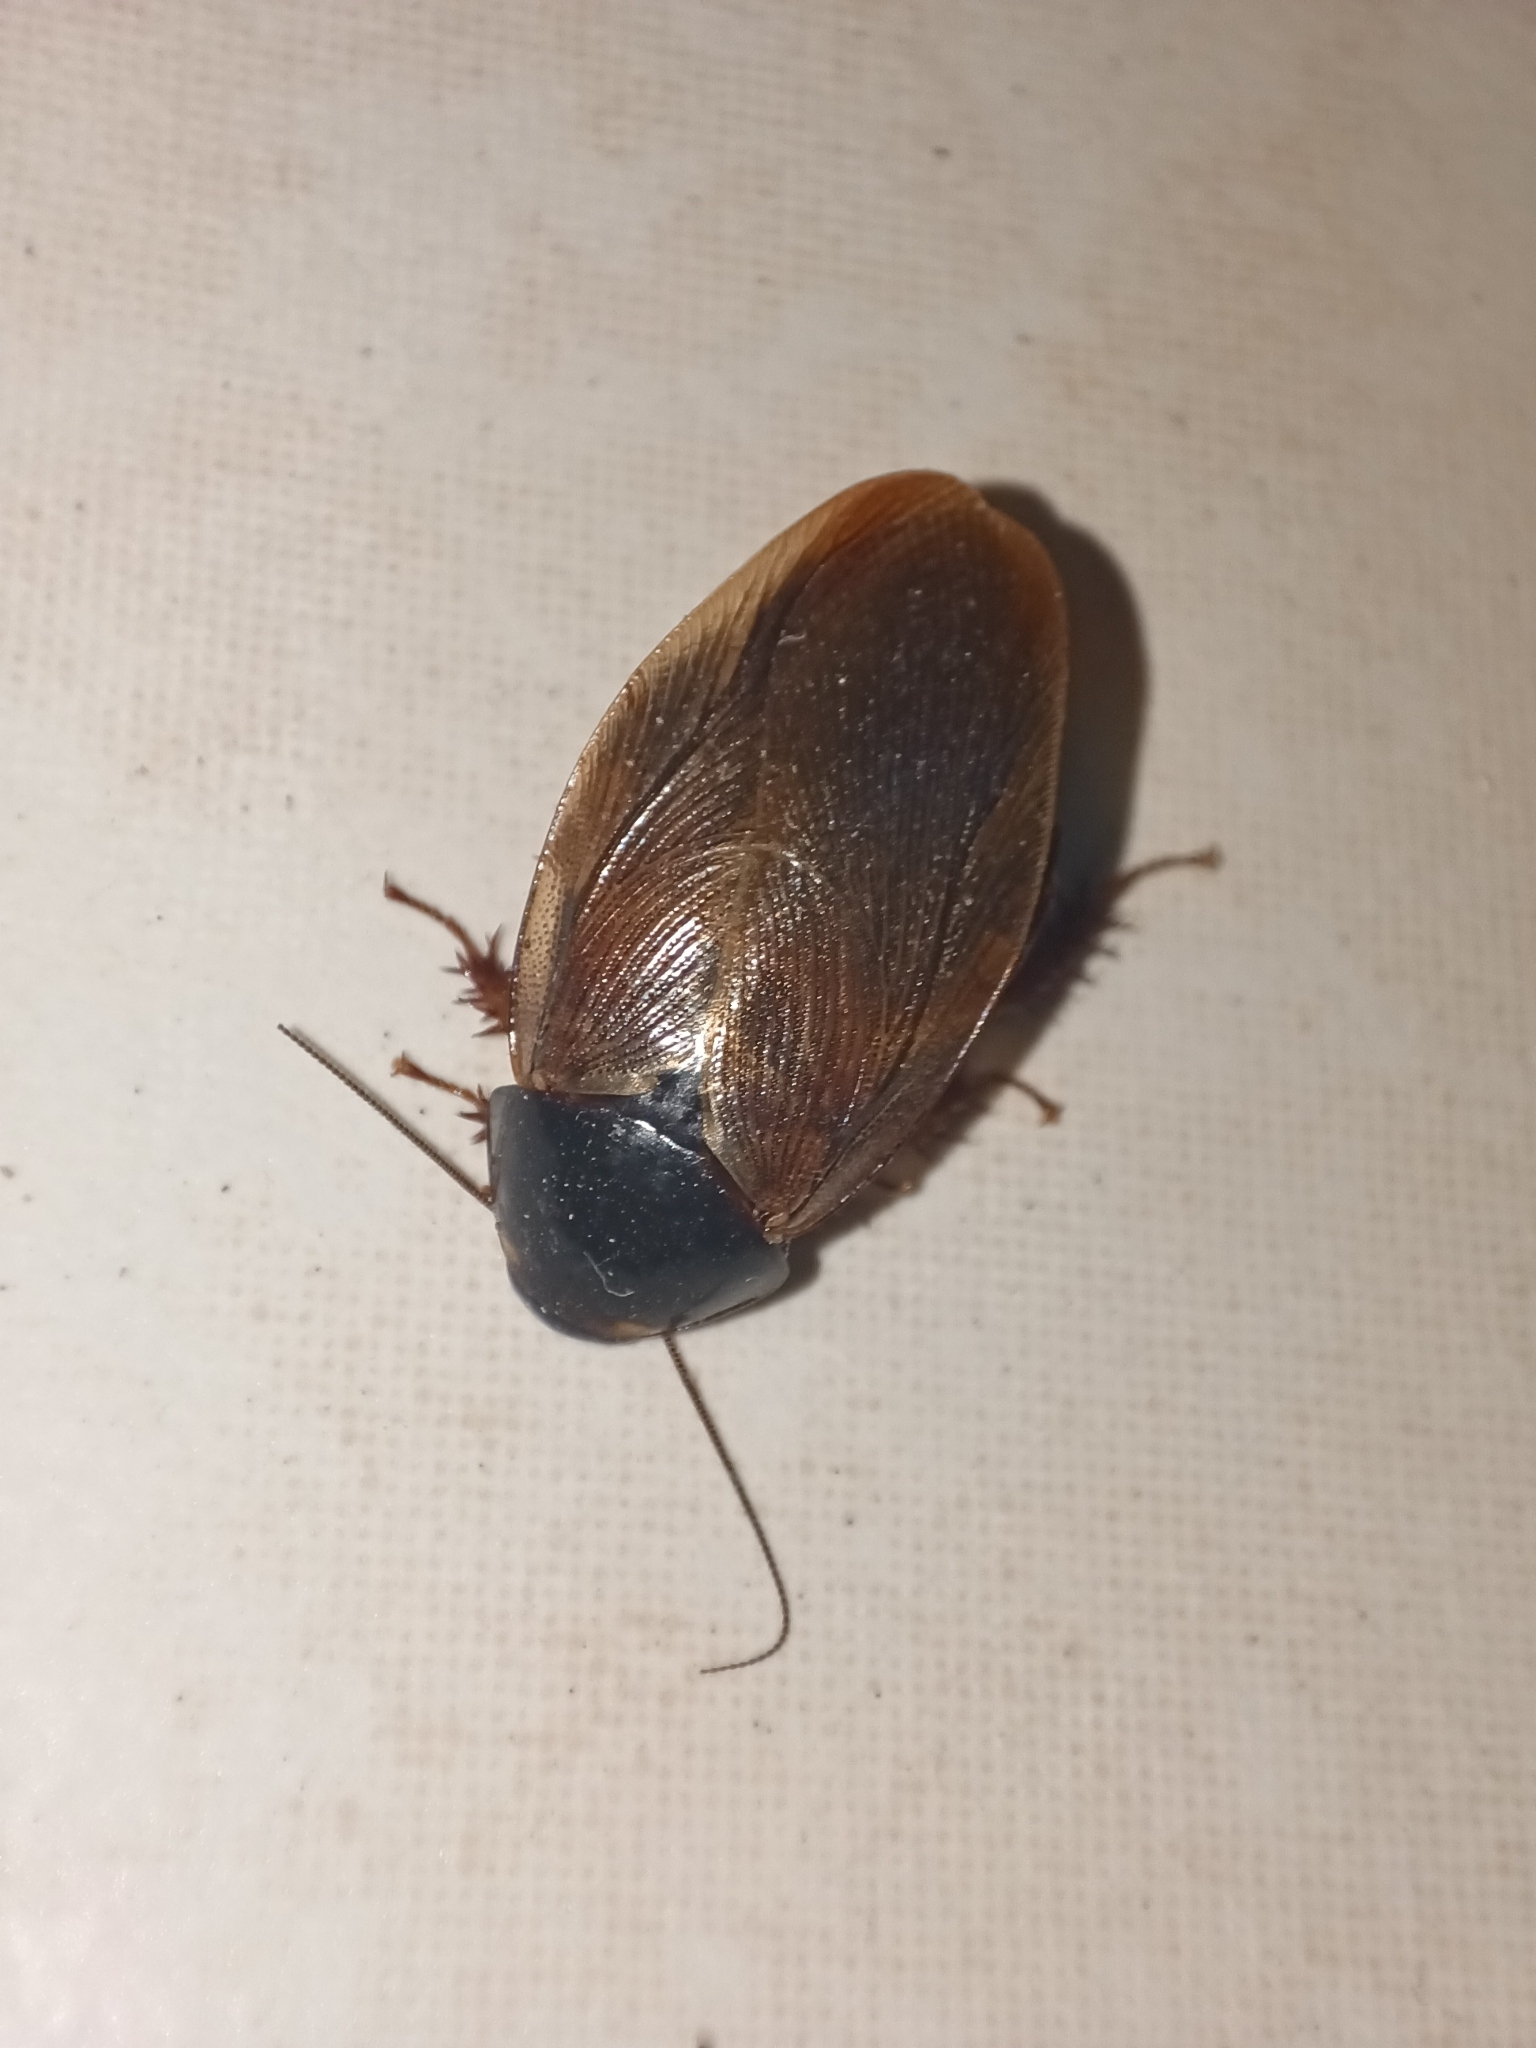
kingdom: Animalia
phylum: Arthropoda
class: Insecta
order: Blattodea
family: Blaberidae
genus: Pycnoscelus
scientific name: Pycnoscelus surinamensis
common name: Surinam cockroach
